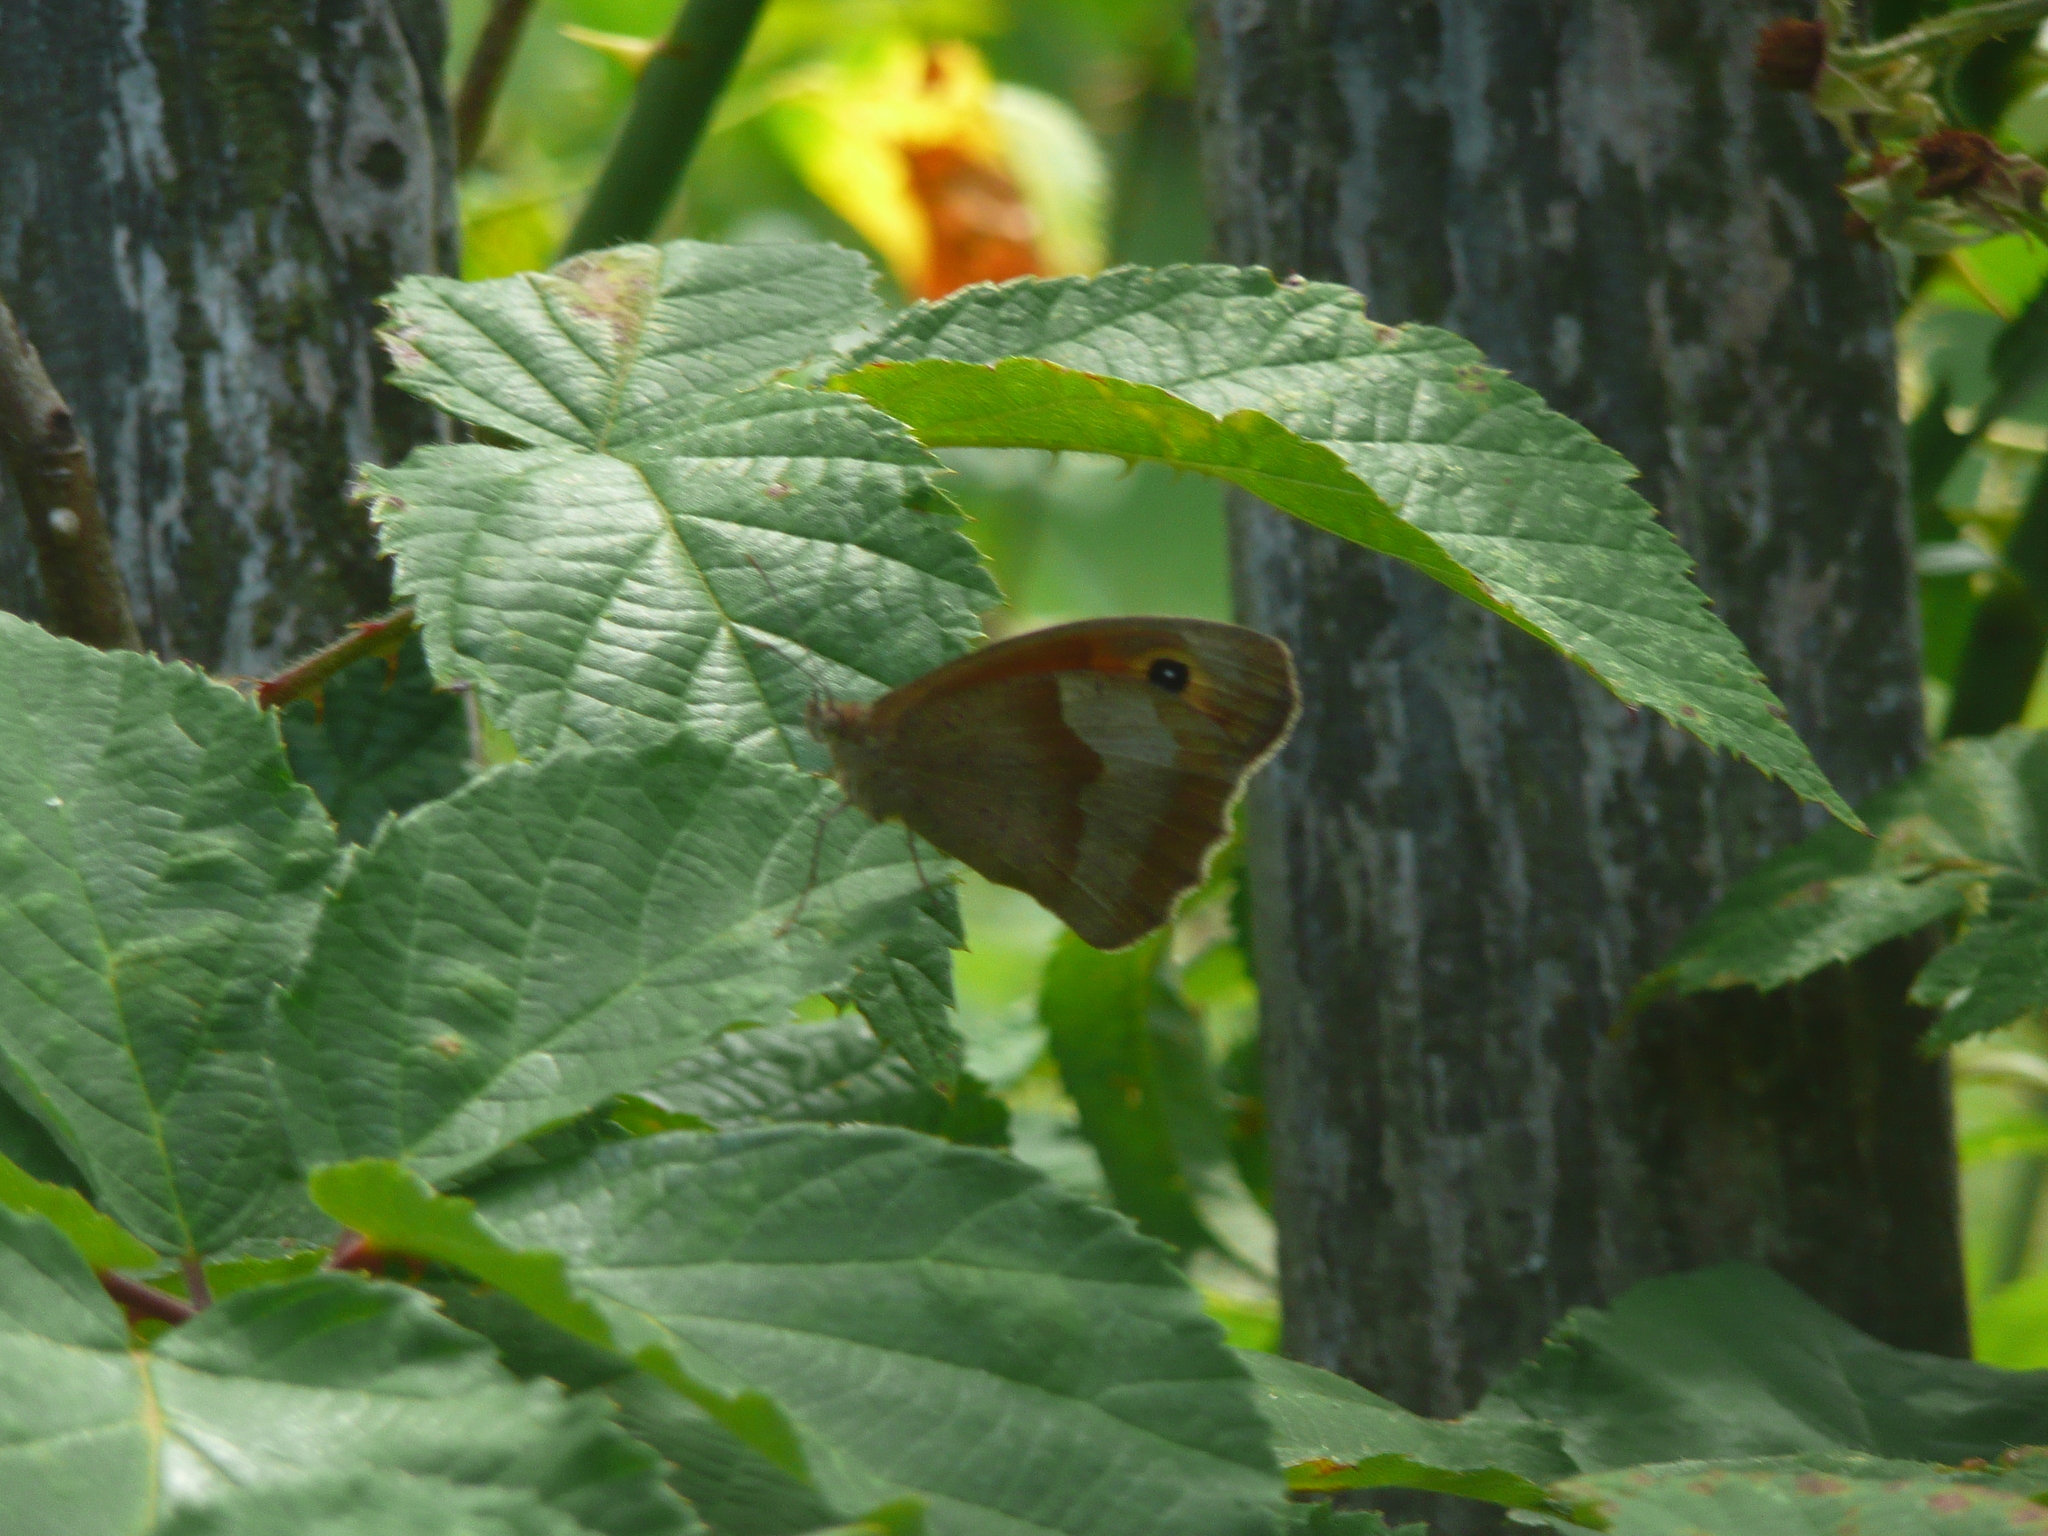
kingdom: Animalia
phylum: Arthropoda
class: Insecta
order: Lepidoptera
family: Nymphalidae
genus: Maniola
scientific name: Maniola jurtina
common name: Meadow brown
